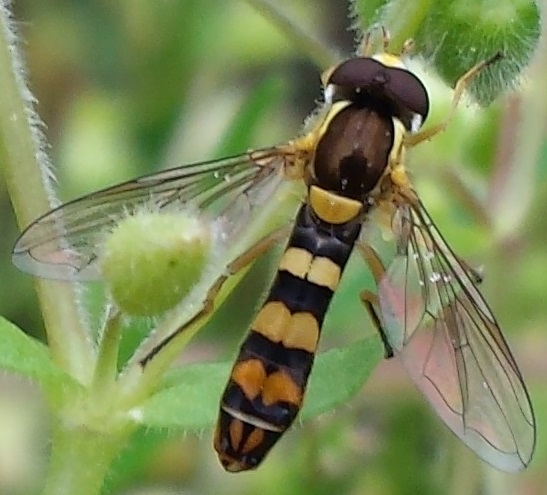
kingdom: Animalia
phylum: Arthropoda
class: Insecta
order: Diptera
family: Syrphidae
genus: Sphaerophoria
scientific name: Sphaerophoria philantha
